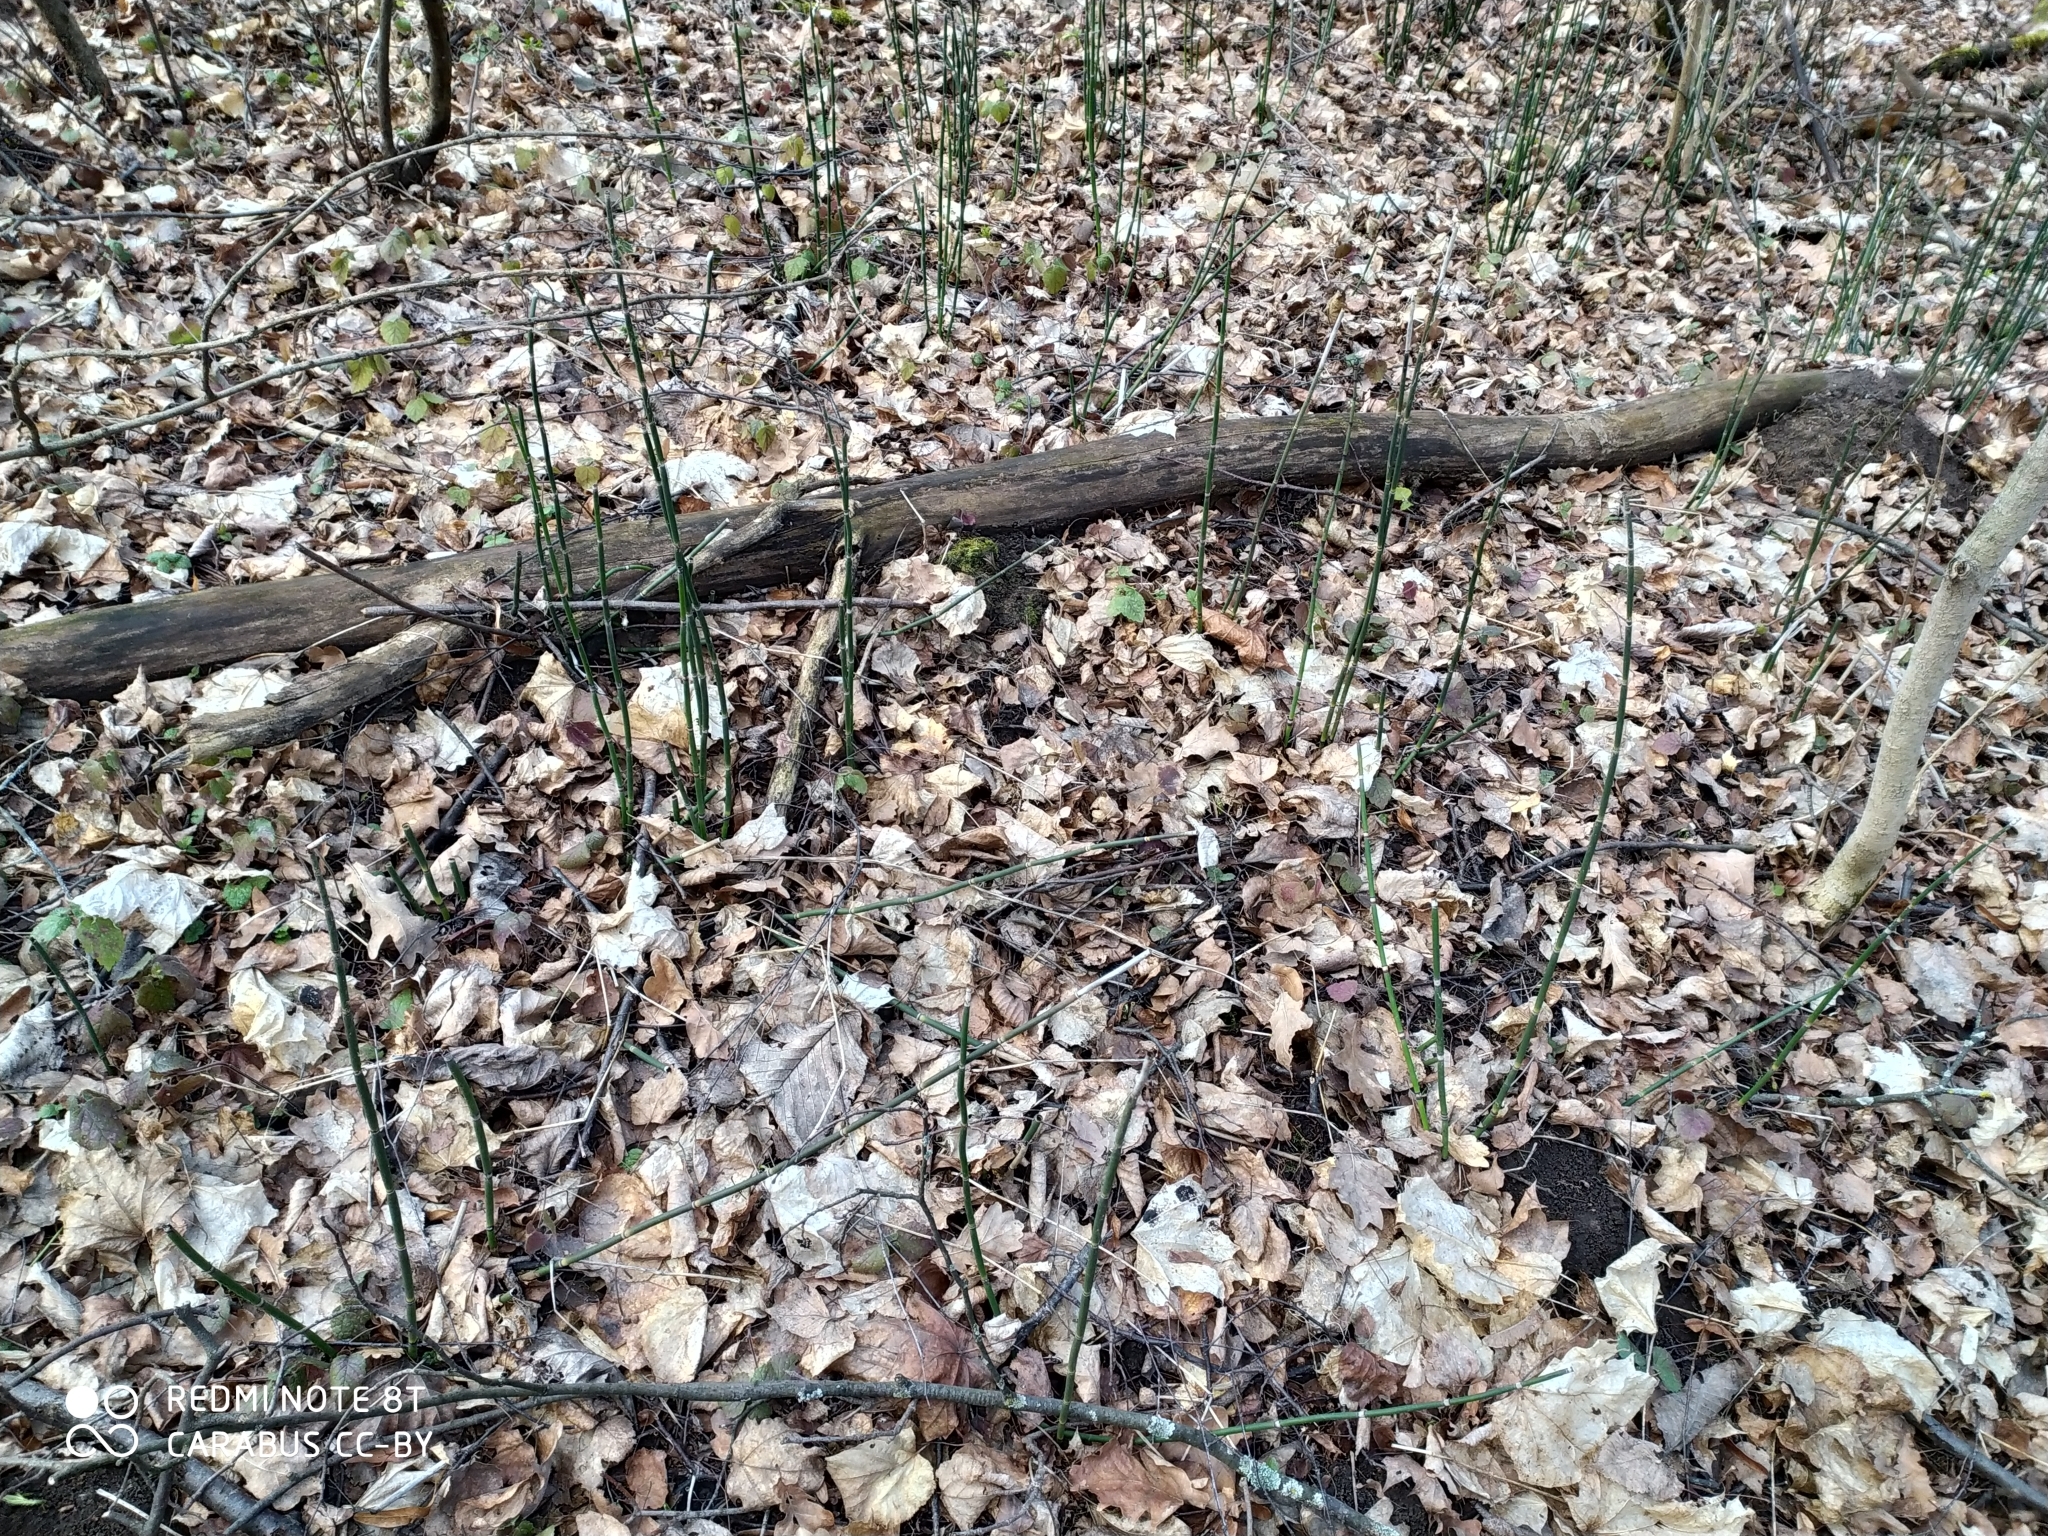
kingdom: Plantae
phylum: Tracheophyta
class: Polypodiopsida
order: Equisetales
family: Equisetaceae
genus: Equisetum
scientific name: Equisetum hyemale
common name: Rough horsetail
